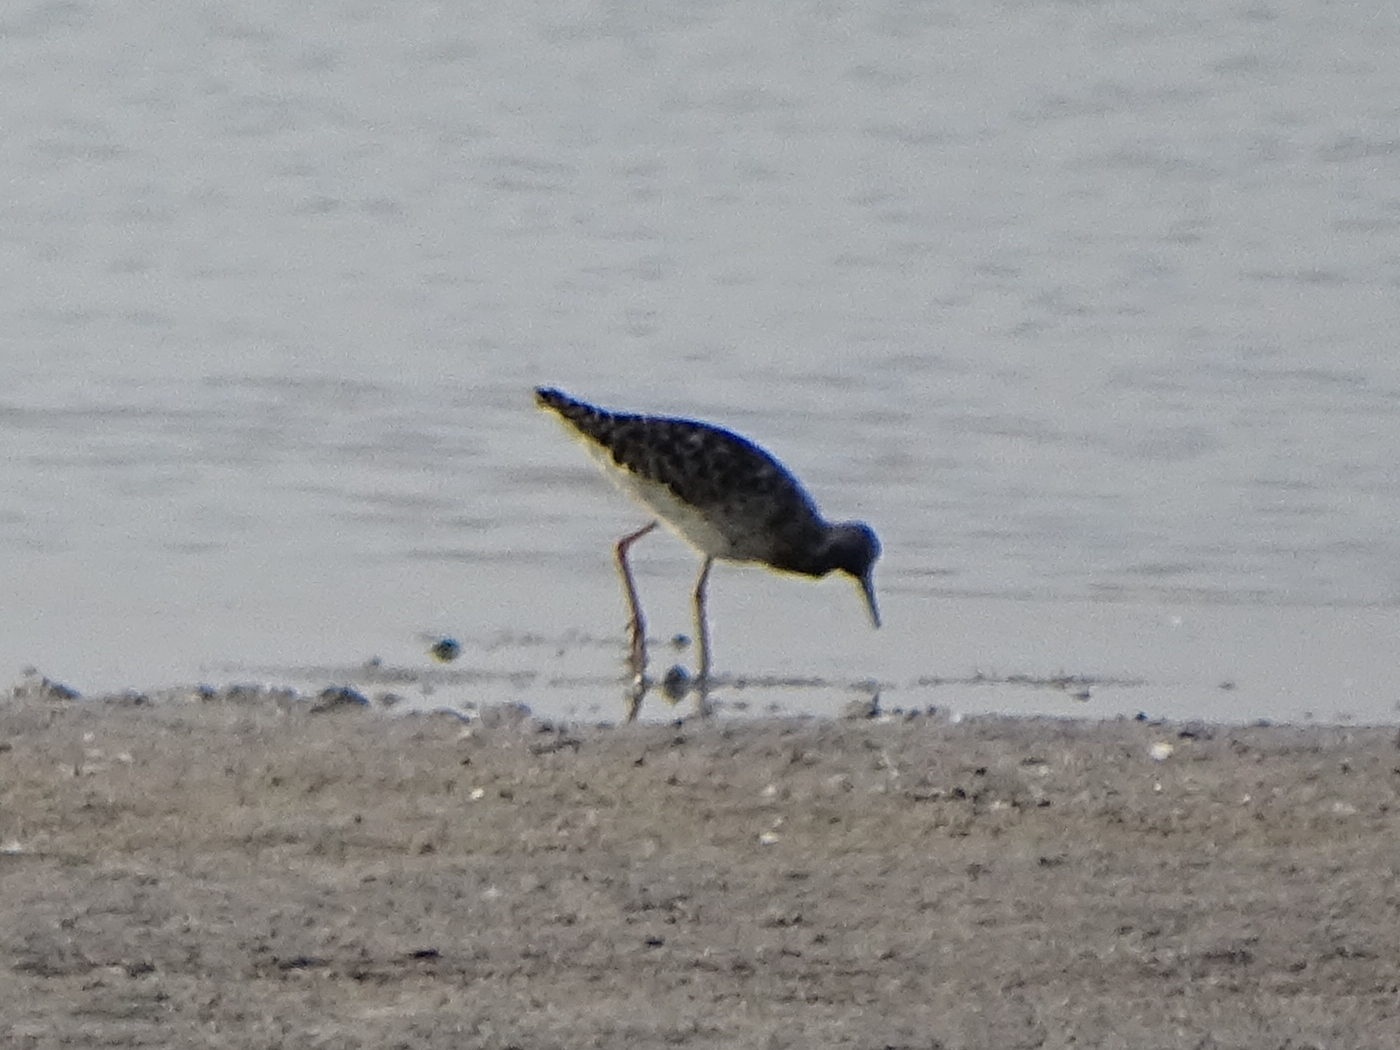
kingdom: Animalia
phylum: Chordata
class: Aves
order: Charadriiformes
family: Scolopacidae
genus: Calidris
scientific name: Calidris pugnax
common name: Ruff
